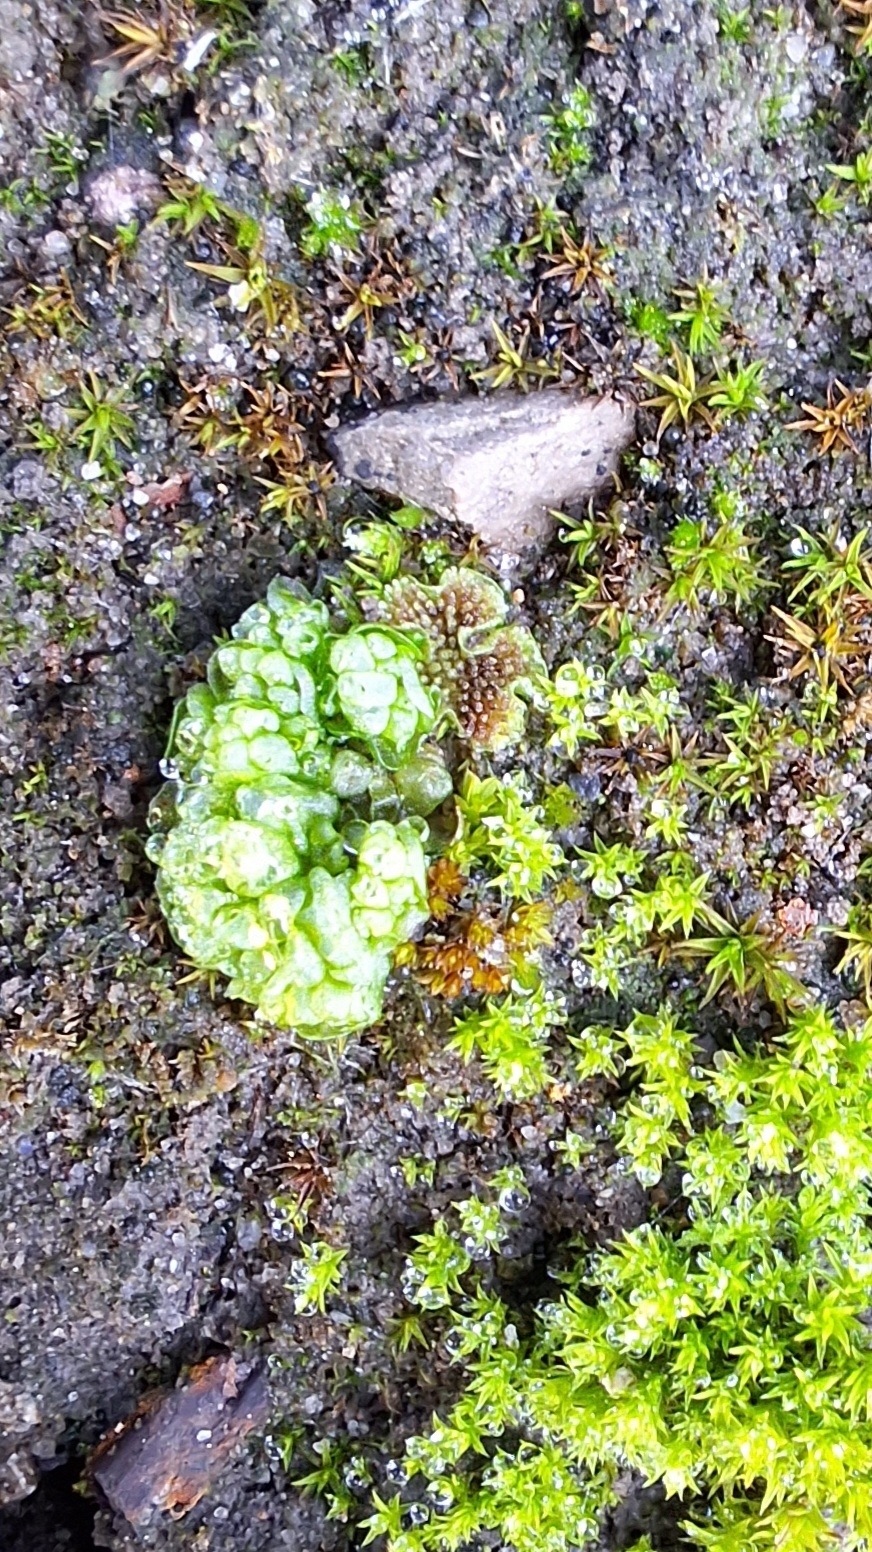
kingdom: Plantae
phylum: Marchantiophyta
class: Marchantiopsida
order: Sphaerocarpales
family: Sphaerocarpaceae
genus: Sphaerocarpos
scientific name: Sphaerocarpos texanus
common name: Texas balloonwort
